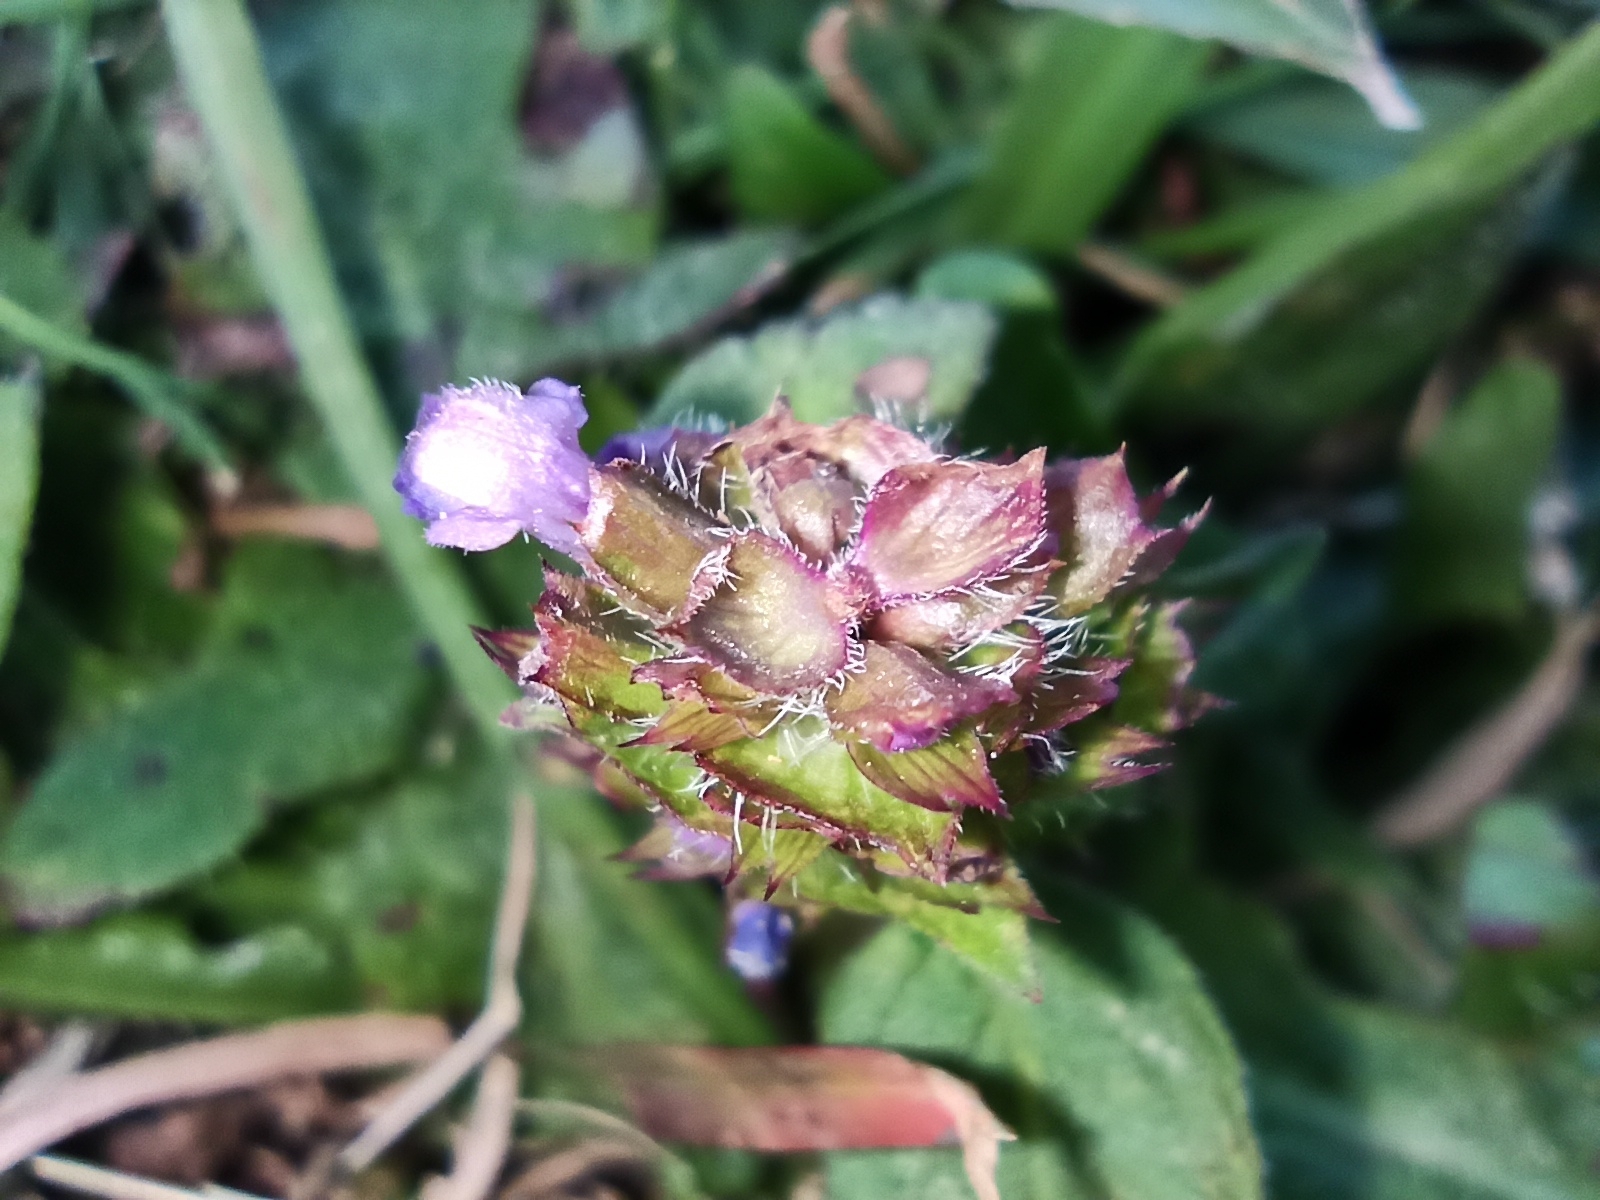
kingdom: Plantae
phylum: Tracheophyta
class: Magnoliopsida
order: Lamiales
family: Lamiaceae
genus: Prunella
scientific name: Prunella vulgaris
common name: Heal-all
